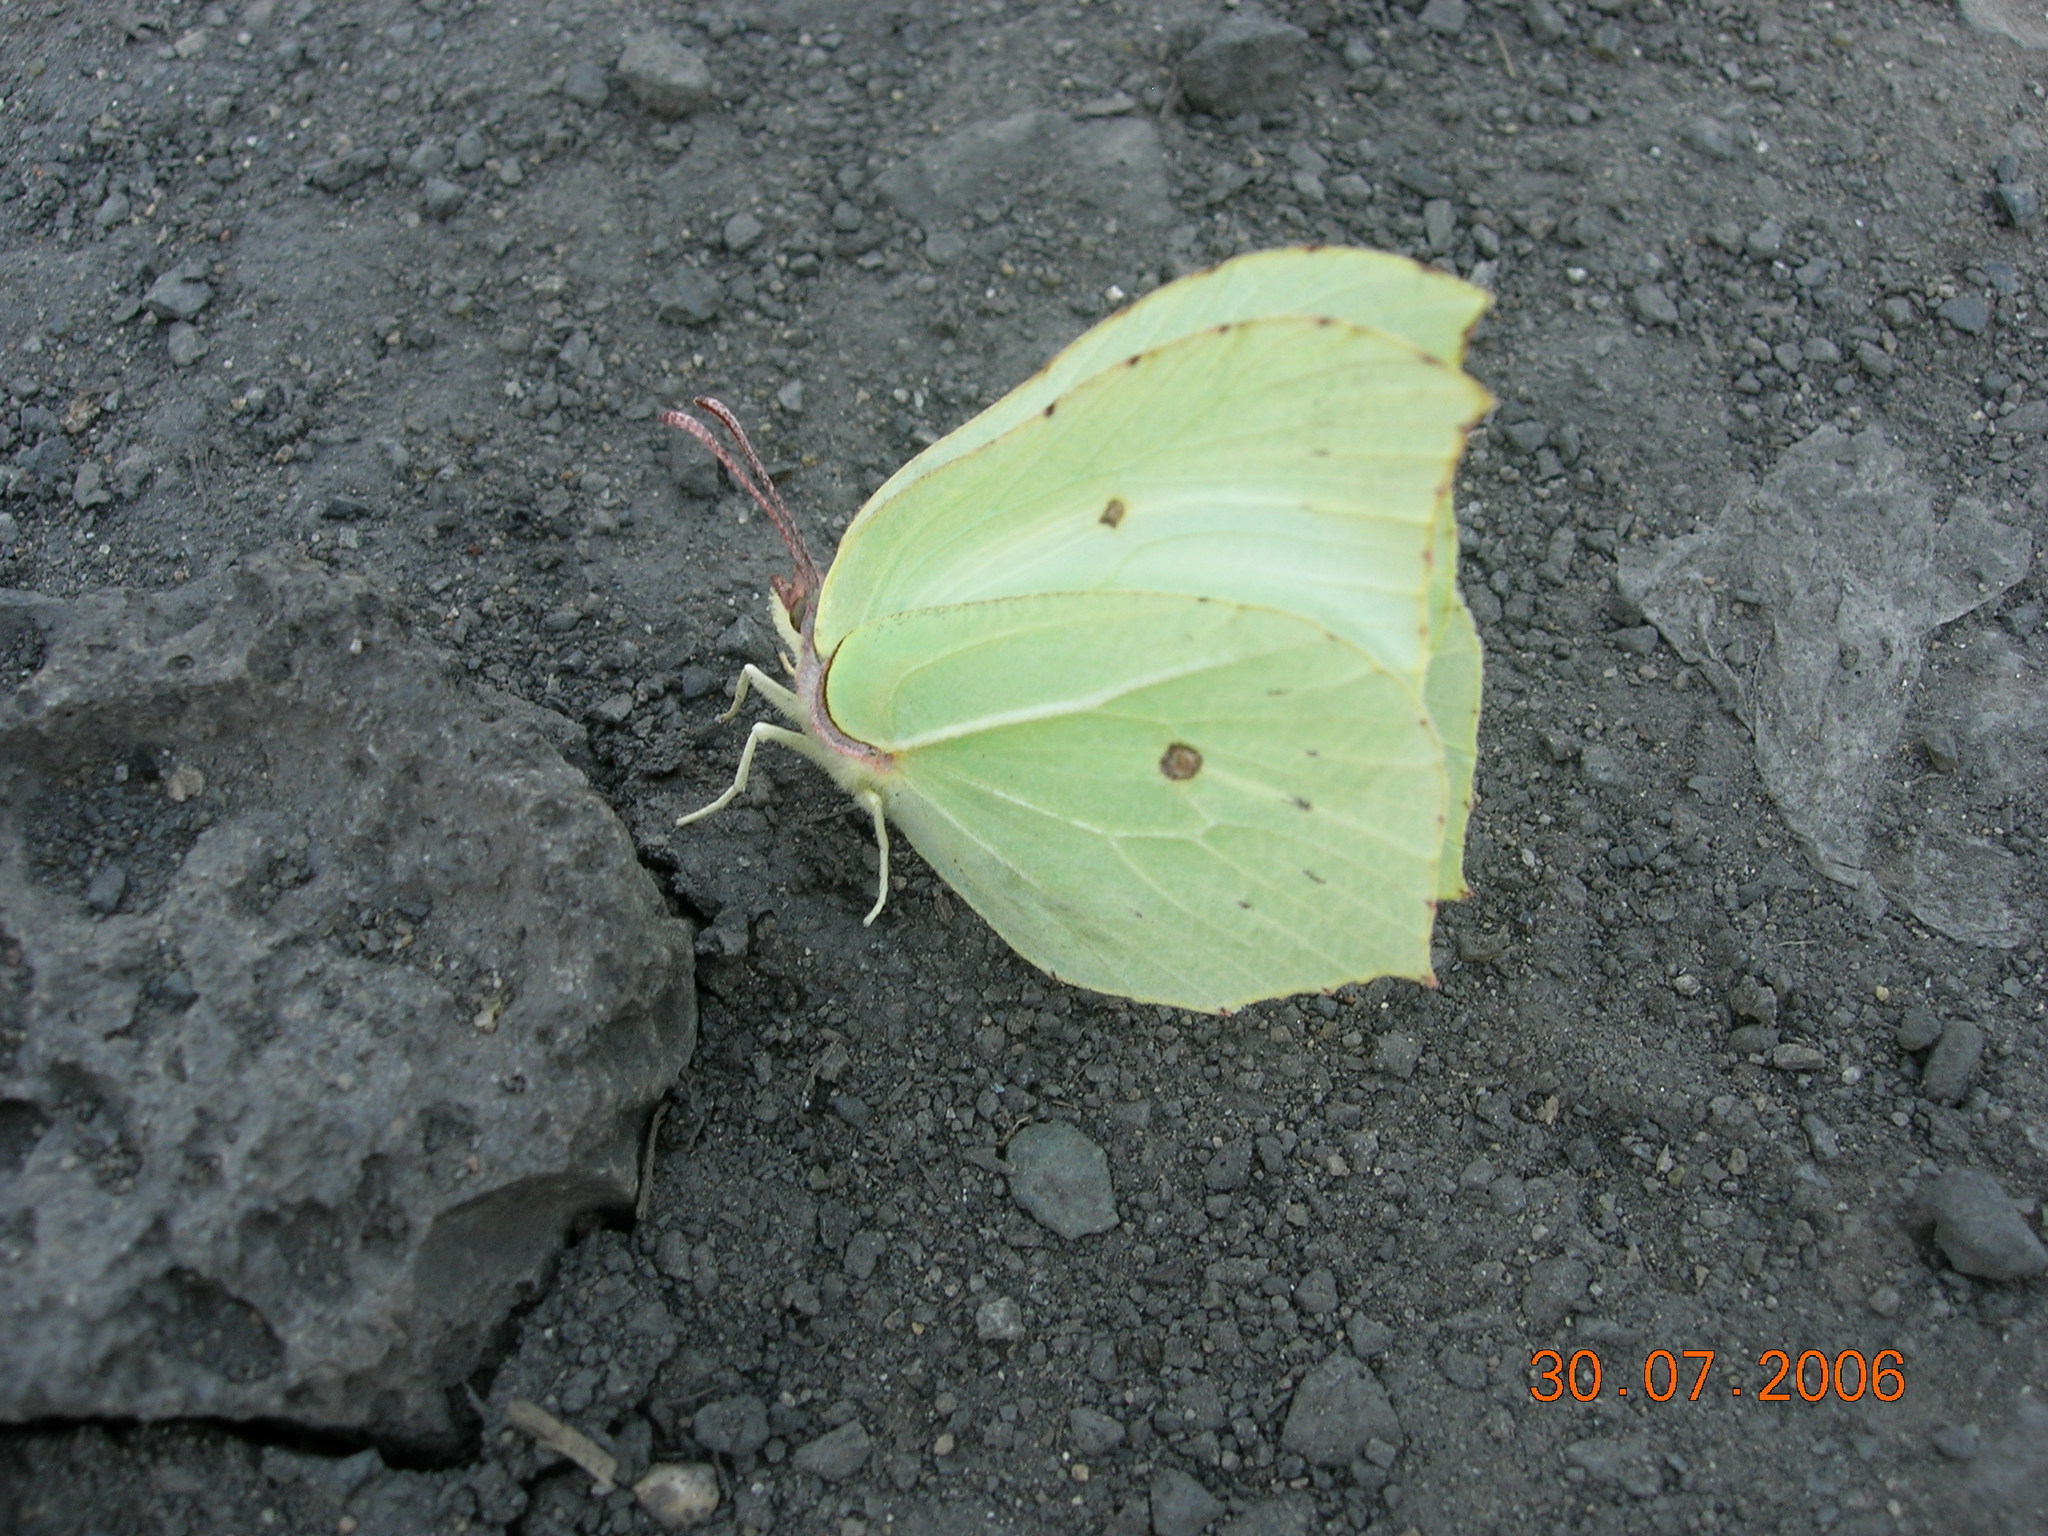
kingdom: Animalia
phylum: Arthropoda
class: Insecta
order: Lepidoptera
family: Pieridae
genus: Gonepteryx
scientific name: Gonepteryx rhamni
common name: Brimstone
